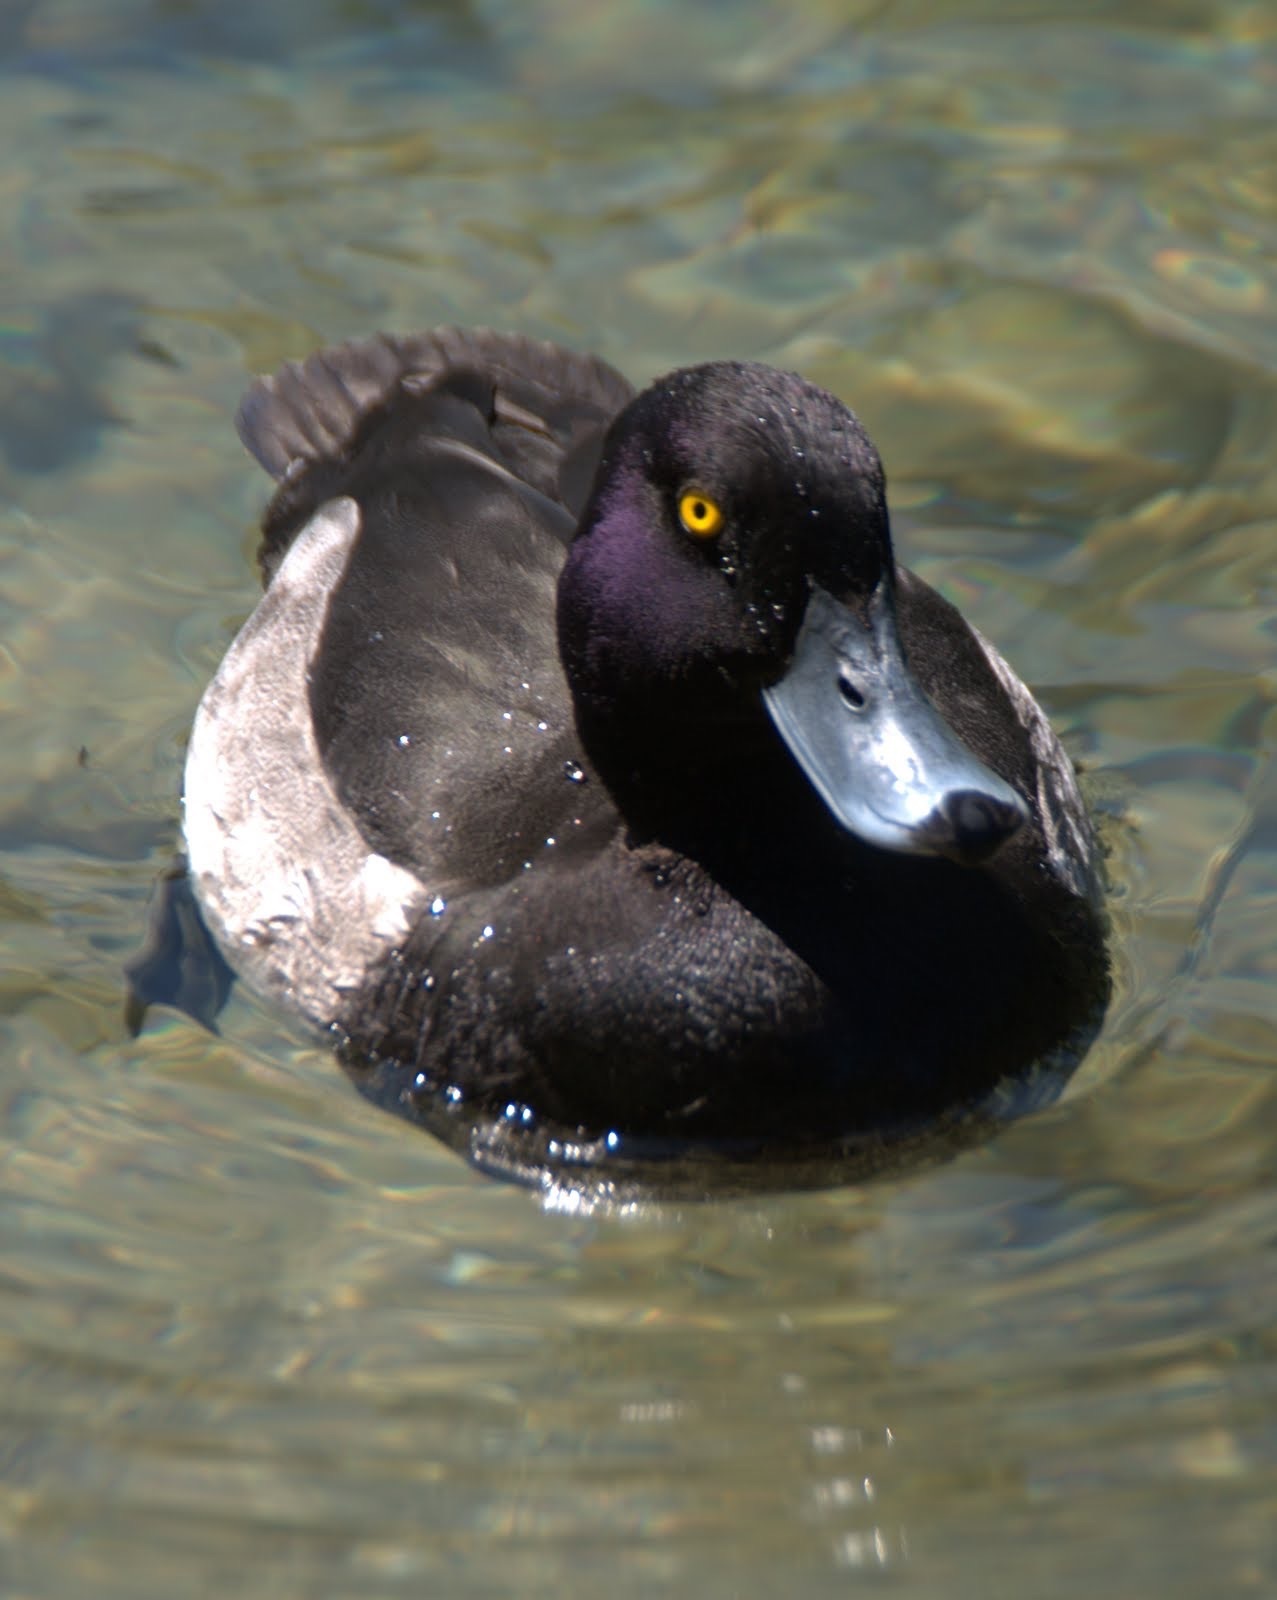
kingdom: Animalia
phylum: Chordata
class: Aves
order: Anseriformes
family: Anatidae
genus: Aythya
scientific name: Aythya fuligula
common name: Tufted duck
